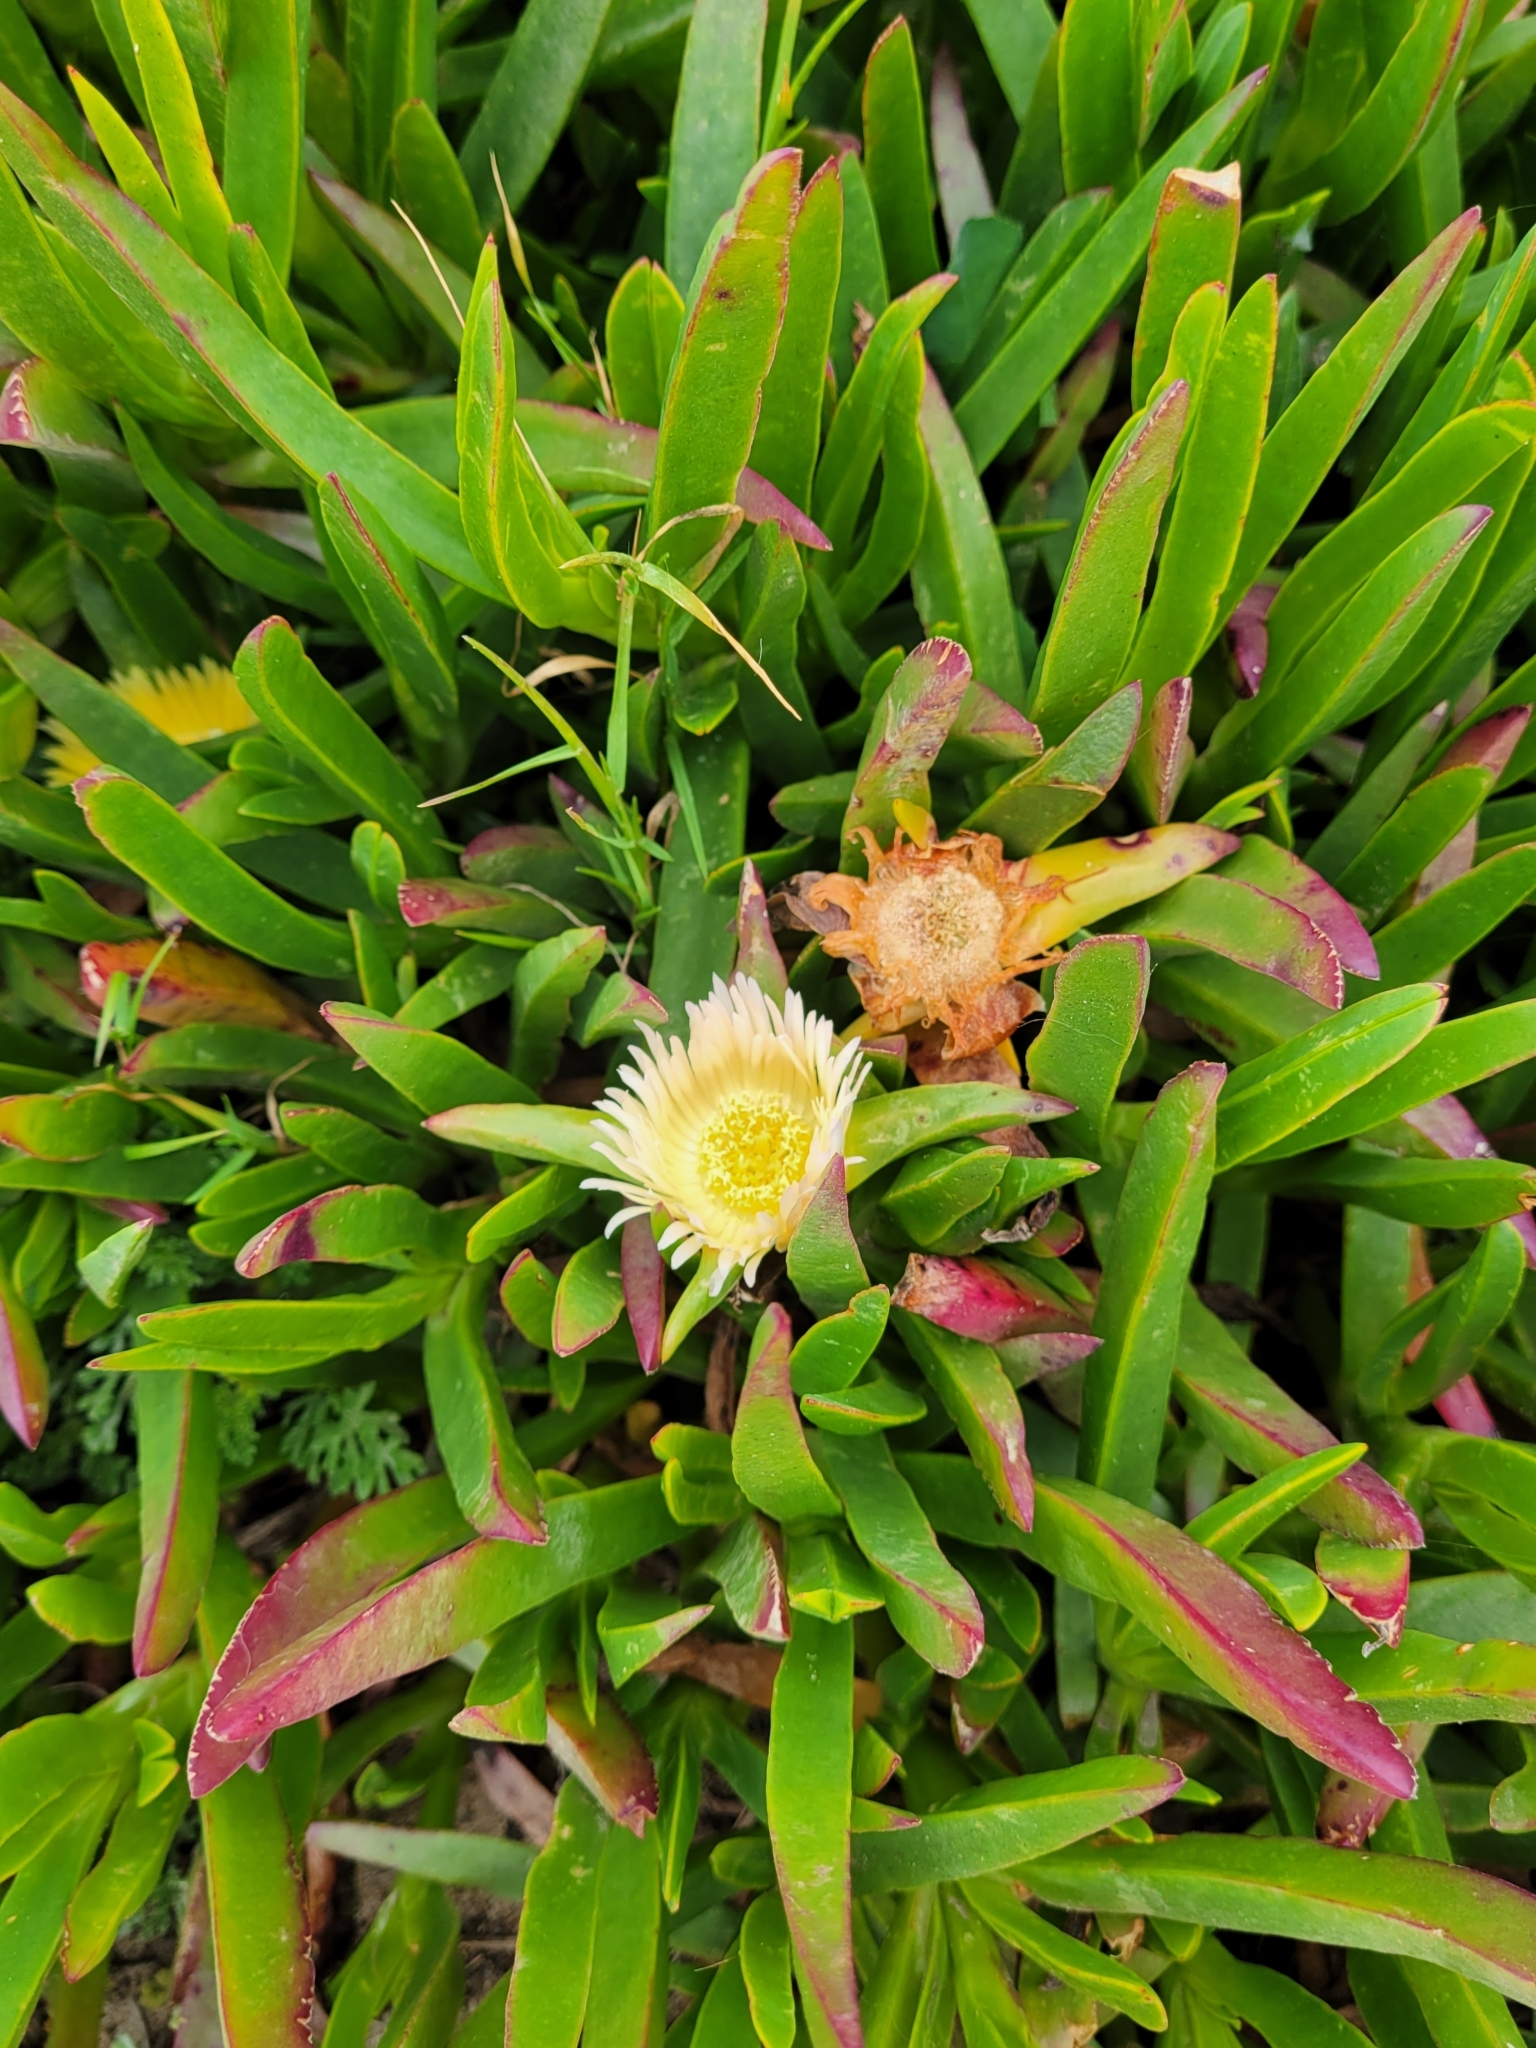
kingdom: Plantae
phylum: Tracheophyta
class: Magnoliopsida
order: Caryophyllales
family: Aizoaceae
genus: Carpobrotus
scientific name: Carpobrotus edulis
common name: Hottentot-fig
